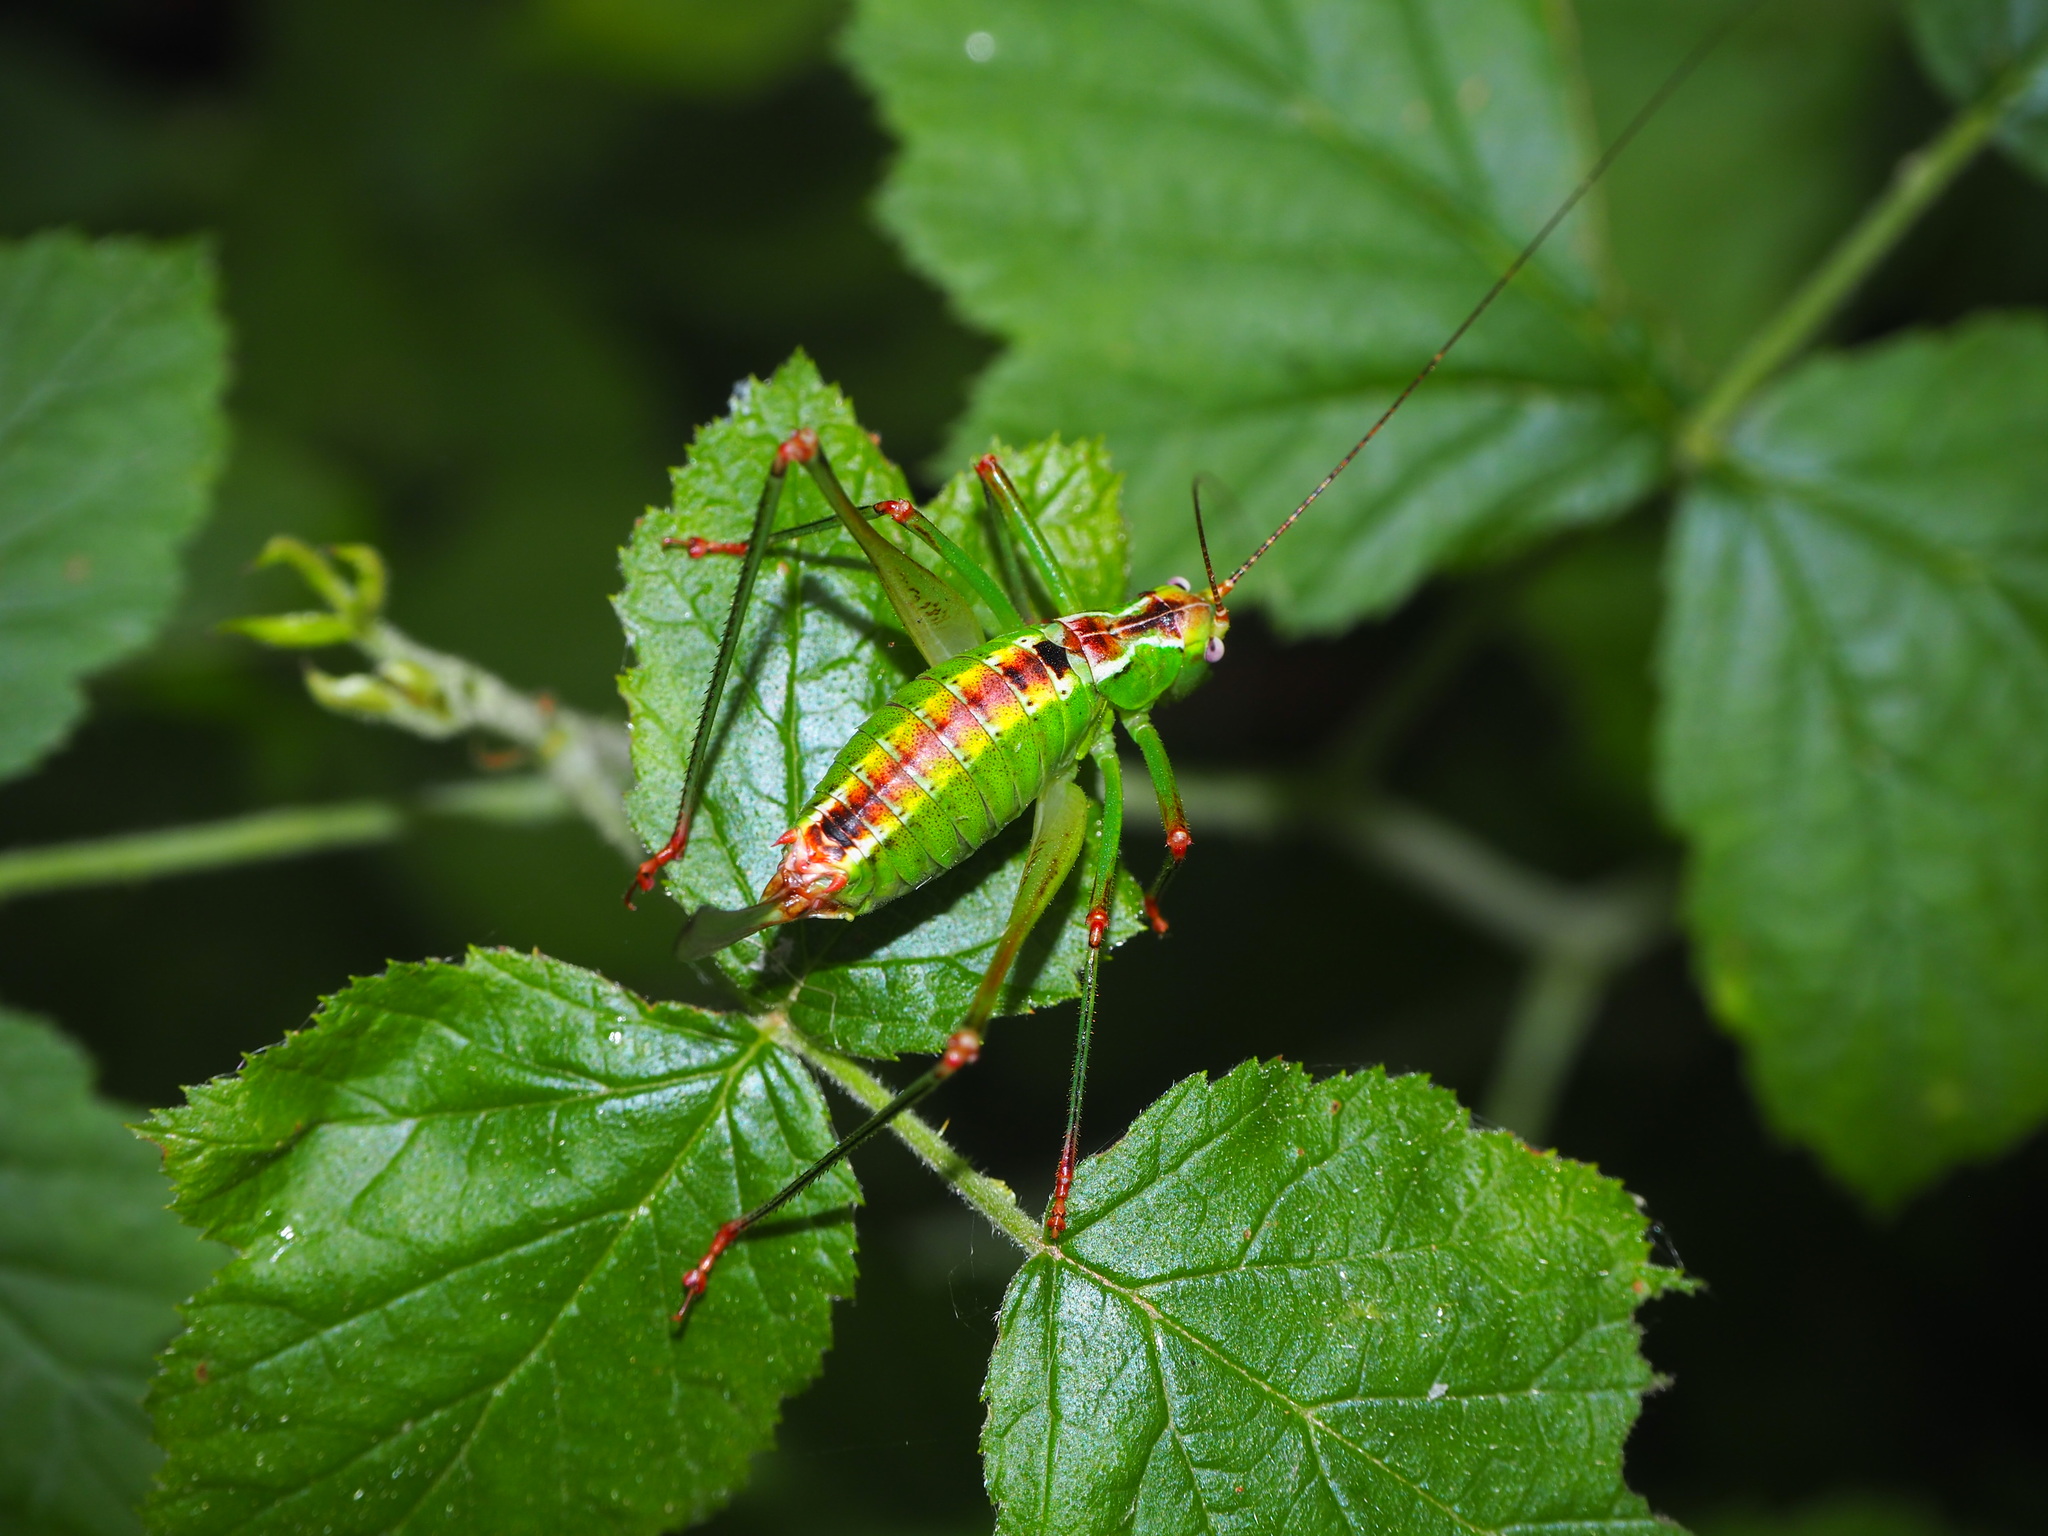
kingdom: Animalia
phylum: Arthropoda
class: Insecta
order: Orthoptera
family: Tettigoniidae
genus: Andreiniimon
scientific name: Andreiniimon nuptialis
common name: Splendid bush-cricket
